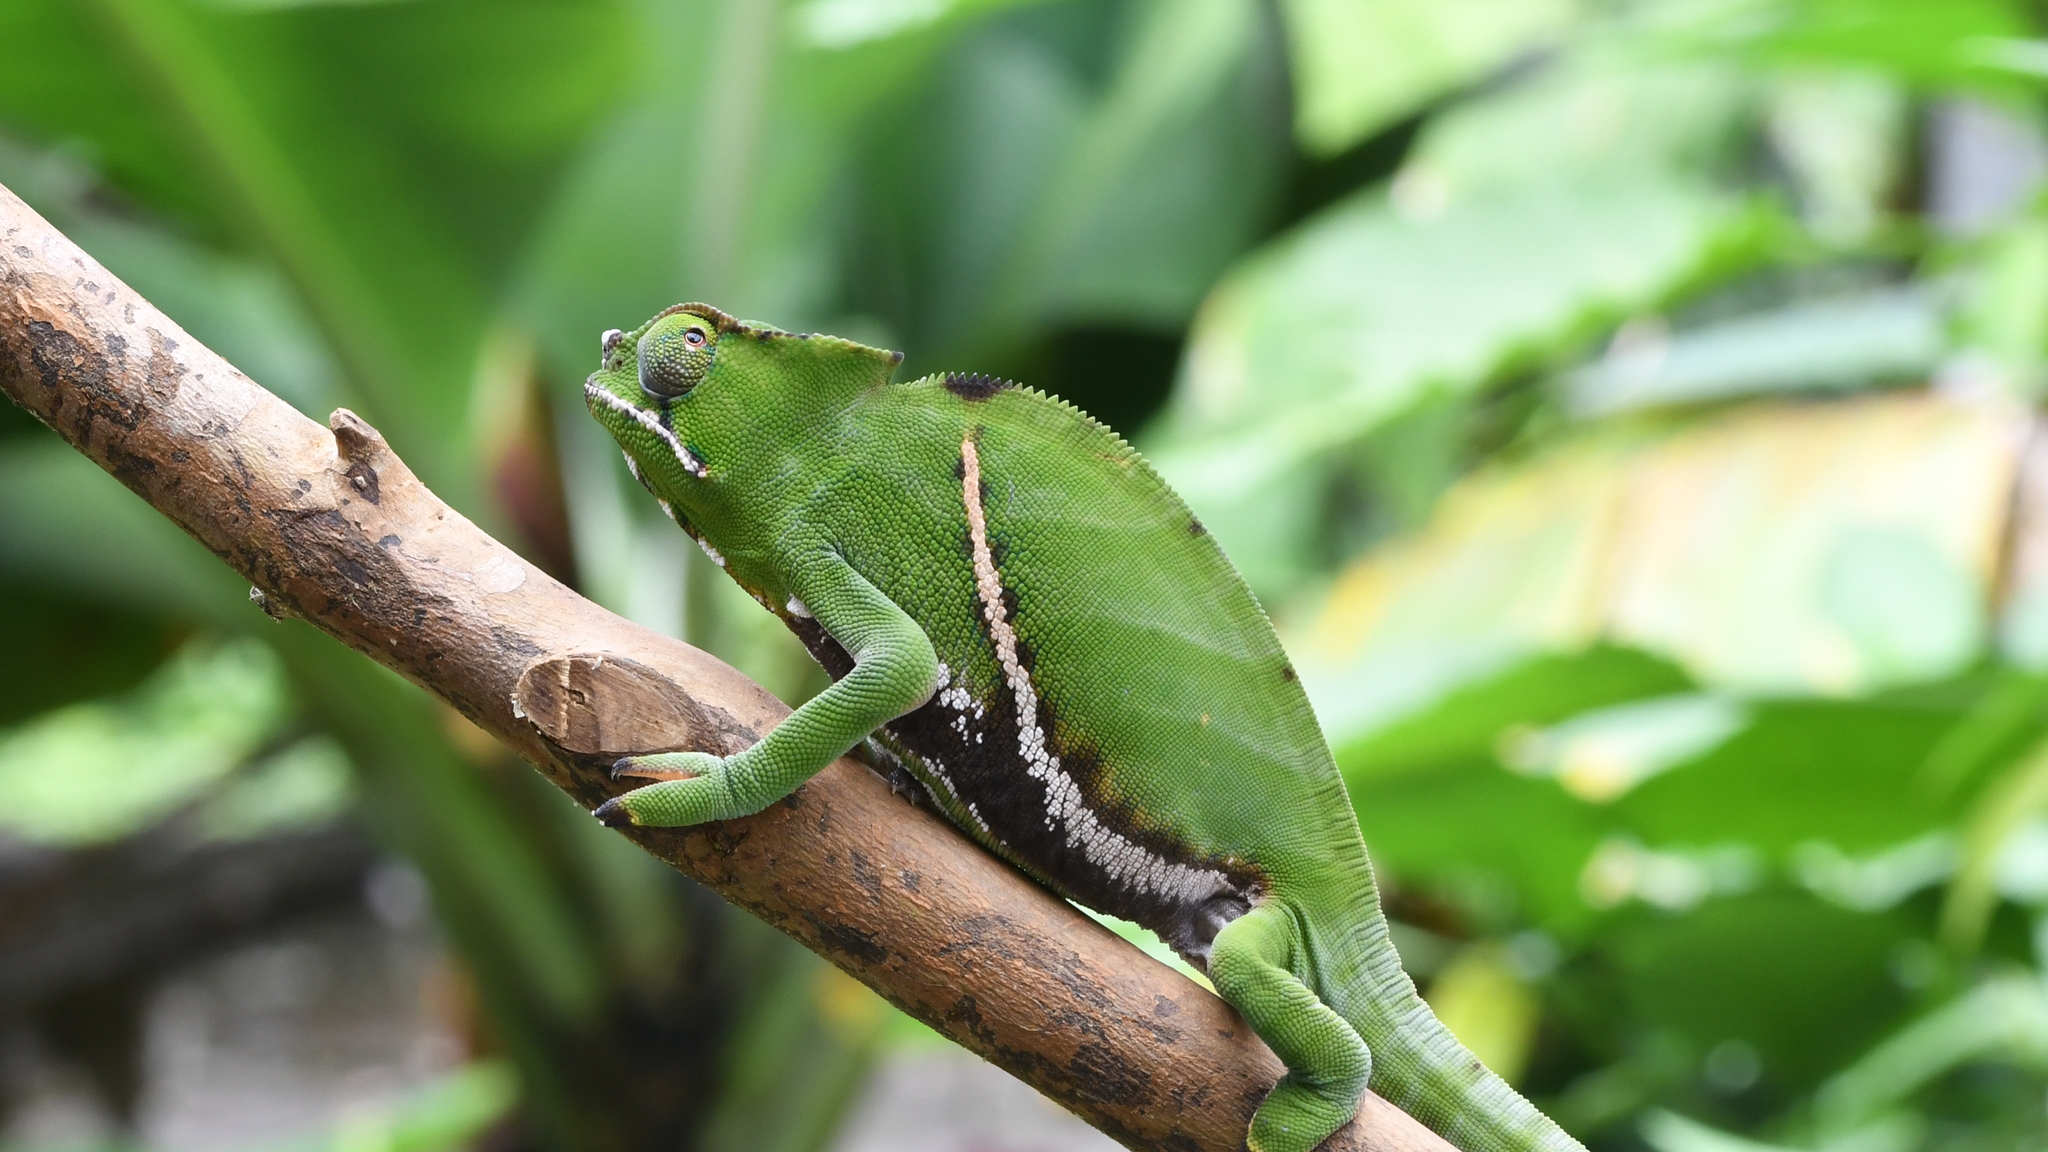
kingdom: Animalia
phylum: Chordata
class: Squamata
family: Chamaeleonidae
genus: Furcifer
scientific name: Furcifer balteatus
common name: Two-banded chameleon
